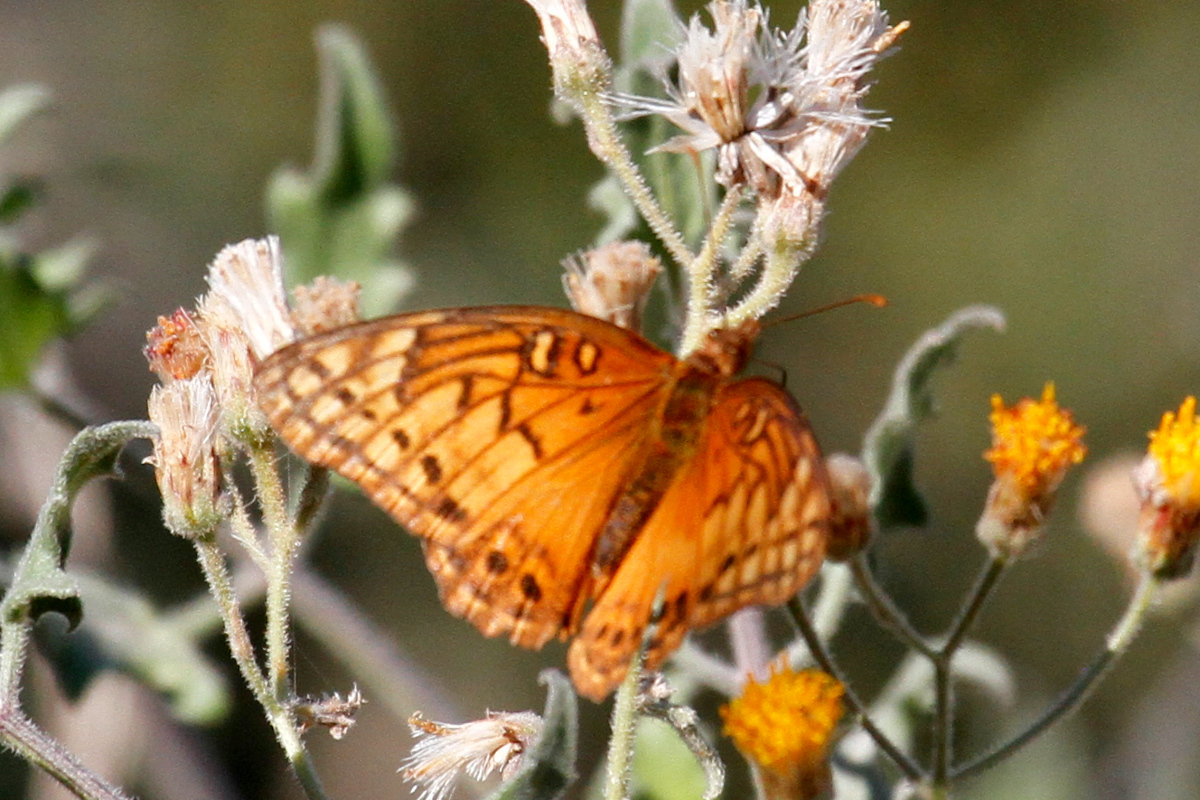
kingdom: Animalia
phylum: Arthropoda
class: Insecta
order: Lepidoptera
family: Nymphalidae
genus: Euptoieta
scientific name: Euptoieta hegesia
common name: Mexican fritillary
